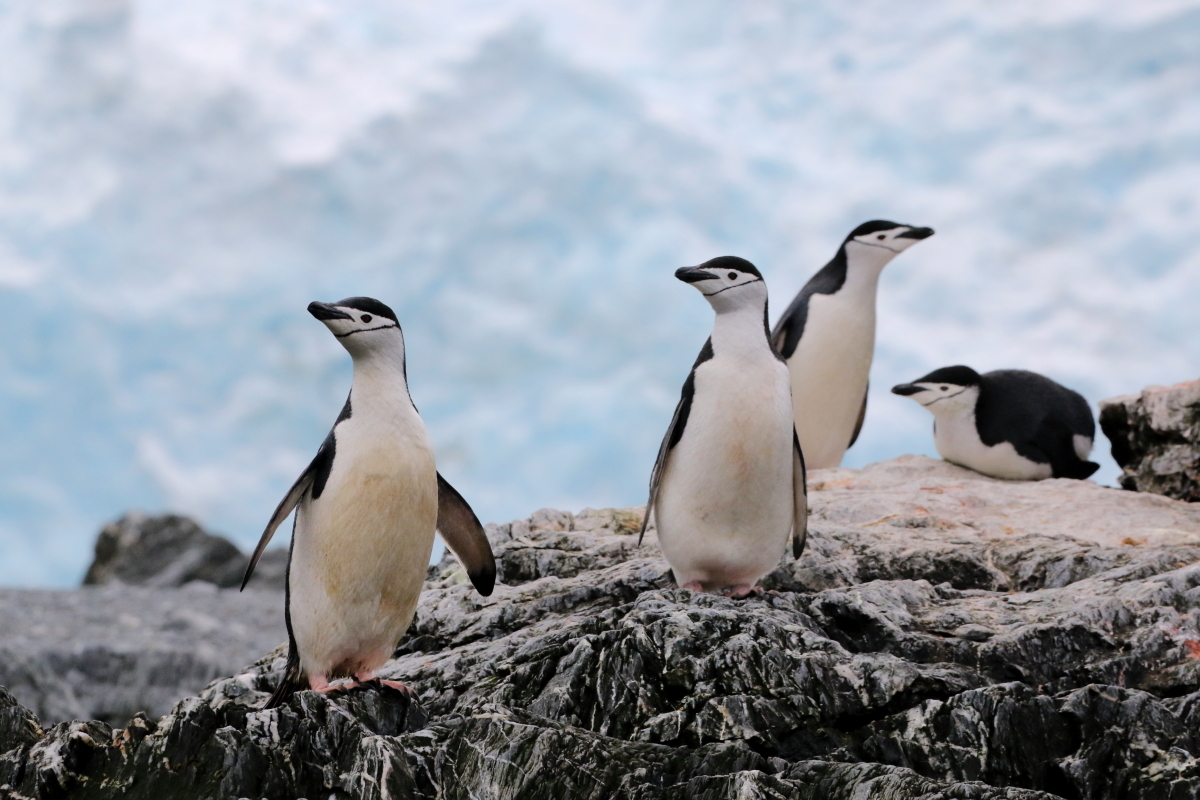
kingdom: Animalia
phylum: Chordata
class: Aves
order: Sphenisciformes
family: Spheniscidae
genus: Pygoscelis
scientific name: Pygoscelis antarcticus
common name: Chinstrap penguin
